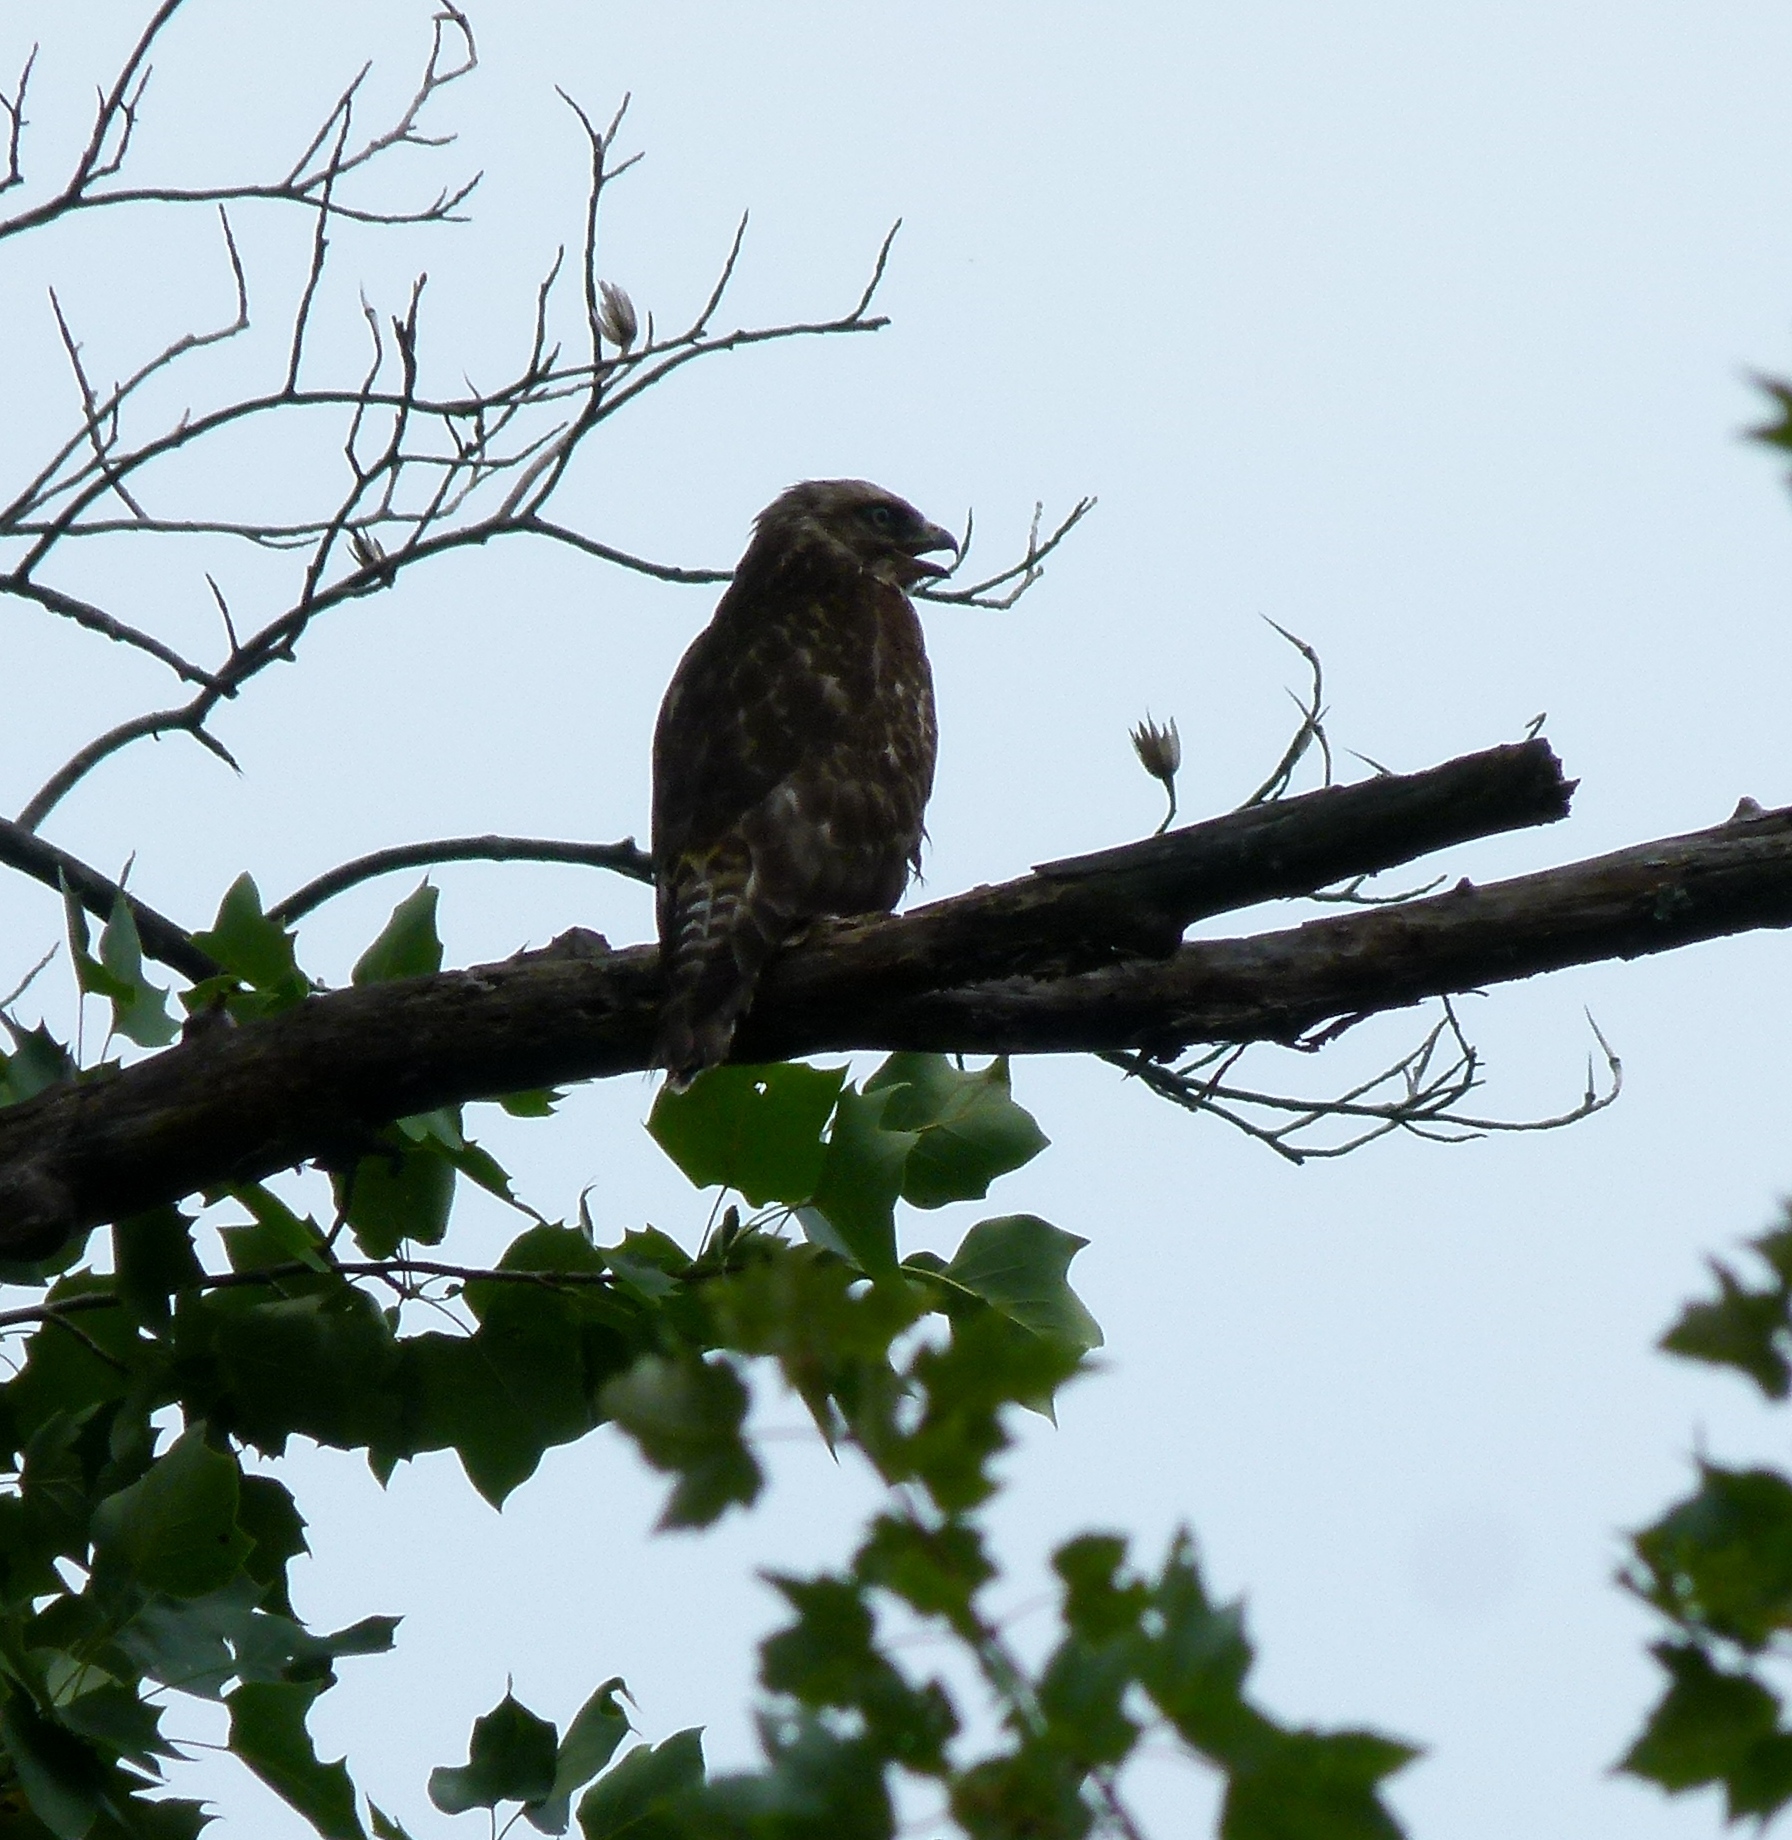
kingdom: Animalia
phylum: Chordata
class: Aves
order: Accipitriformes
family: Accipitridae
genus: Buteo
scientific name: Buteo lineatus
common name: Red-shouldered hawk
